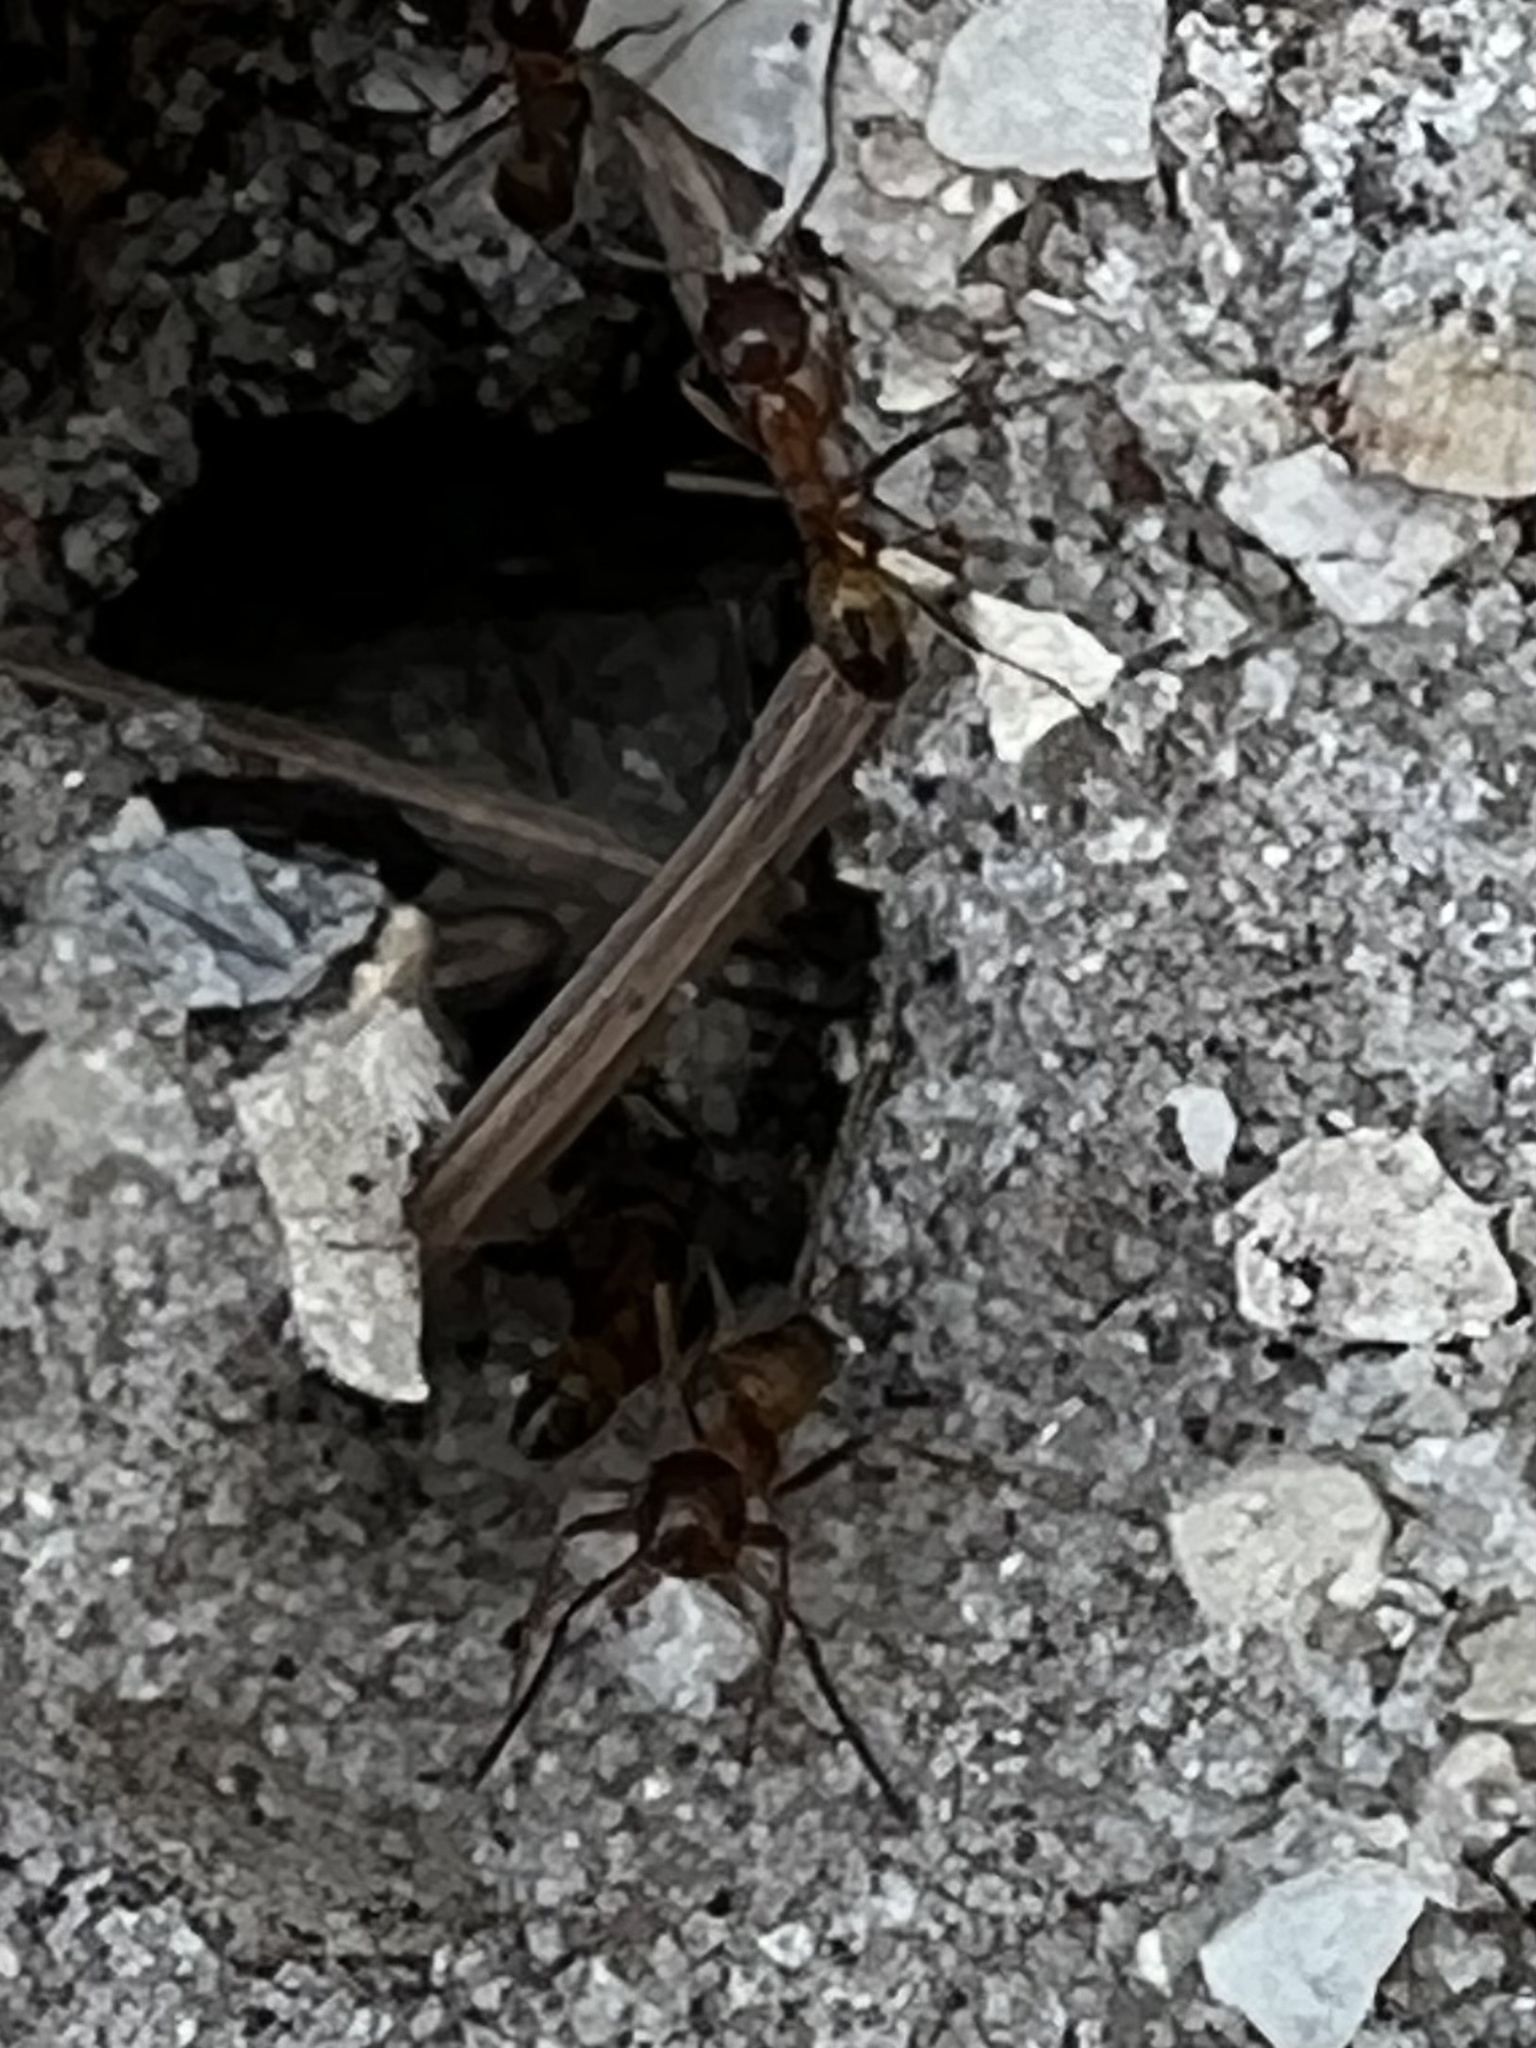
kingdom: Animalia
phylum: Arthropoda
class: Insecta
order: Hymenoptera
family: Formicidae
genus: Dorymyrmex
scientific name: Dorymyrmex bureni
